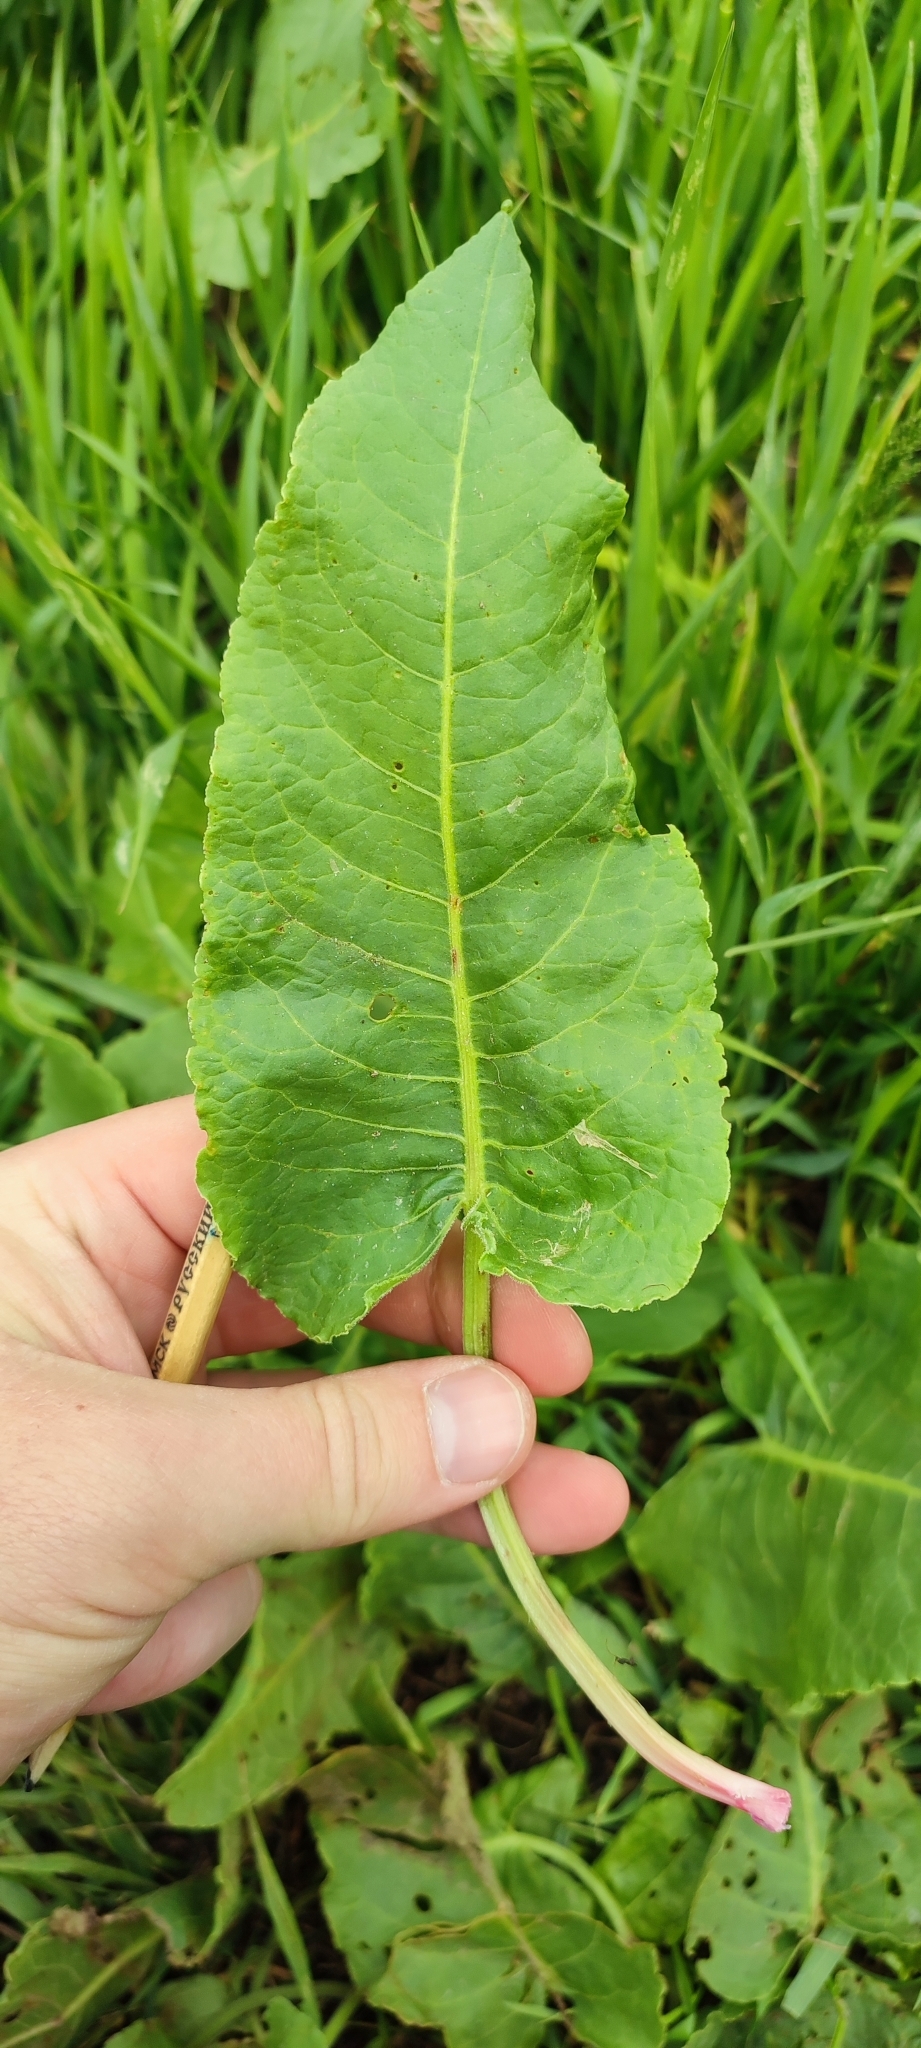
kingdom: Plantae
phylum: Tracheophyta
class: Magnoliopsida
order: Caryophyllales
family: Polygonaceae
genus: Rumex
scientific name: Rumex confertus
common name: Russian dock
